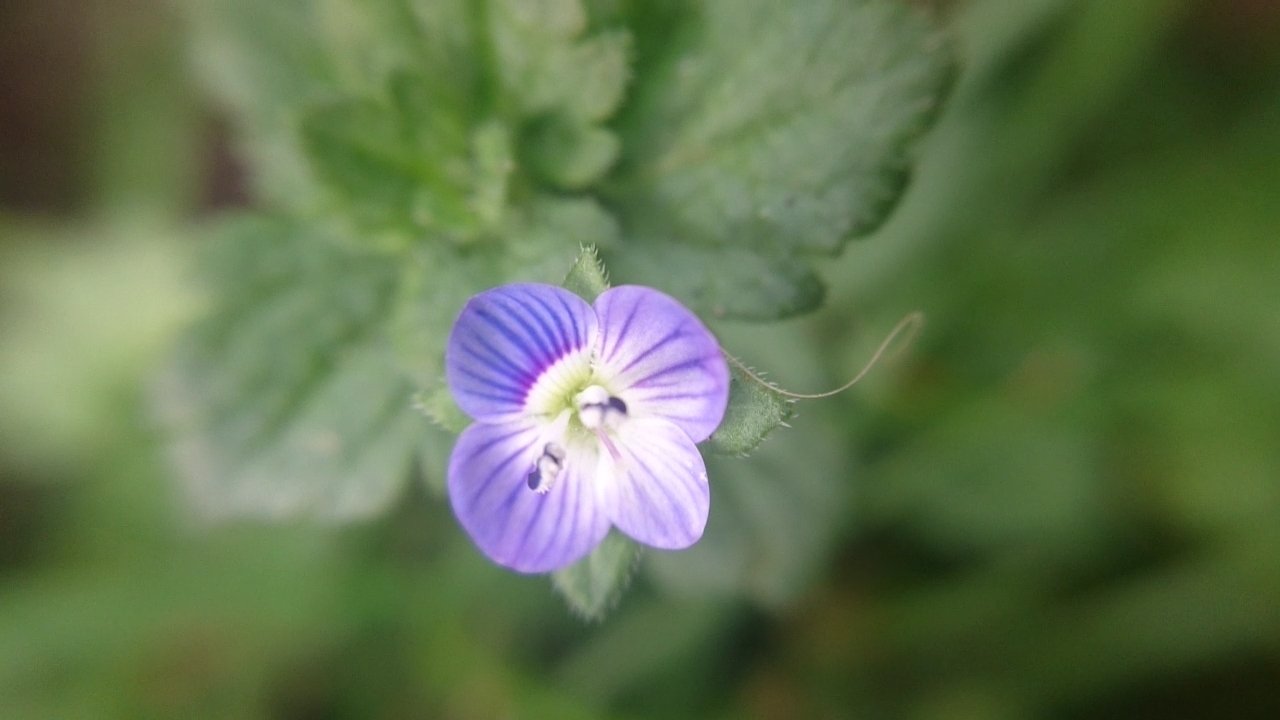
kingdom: Plantae
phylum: Tracheophyta
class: Magnoliopsida
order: Lamiales
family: Plantaginaceae
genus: Veronica
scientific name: Veronica persica
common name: Common field-speedwell
